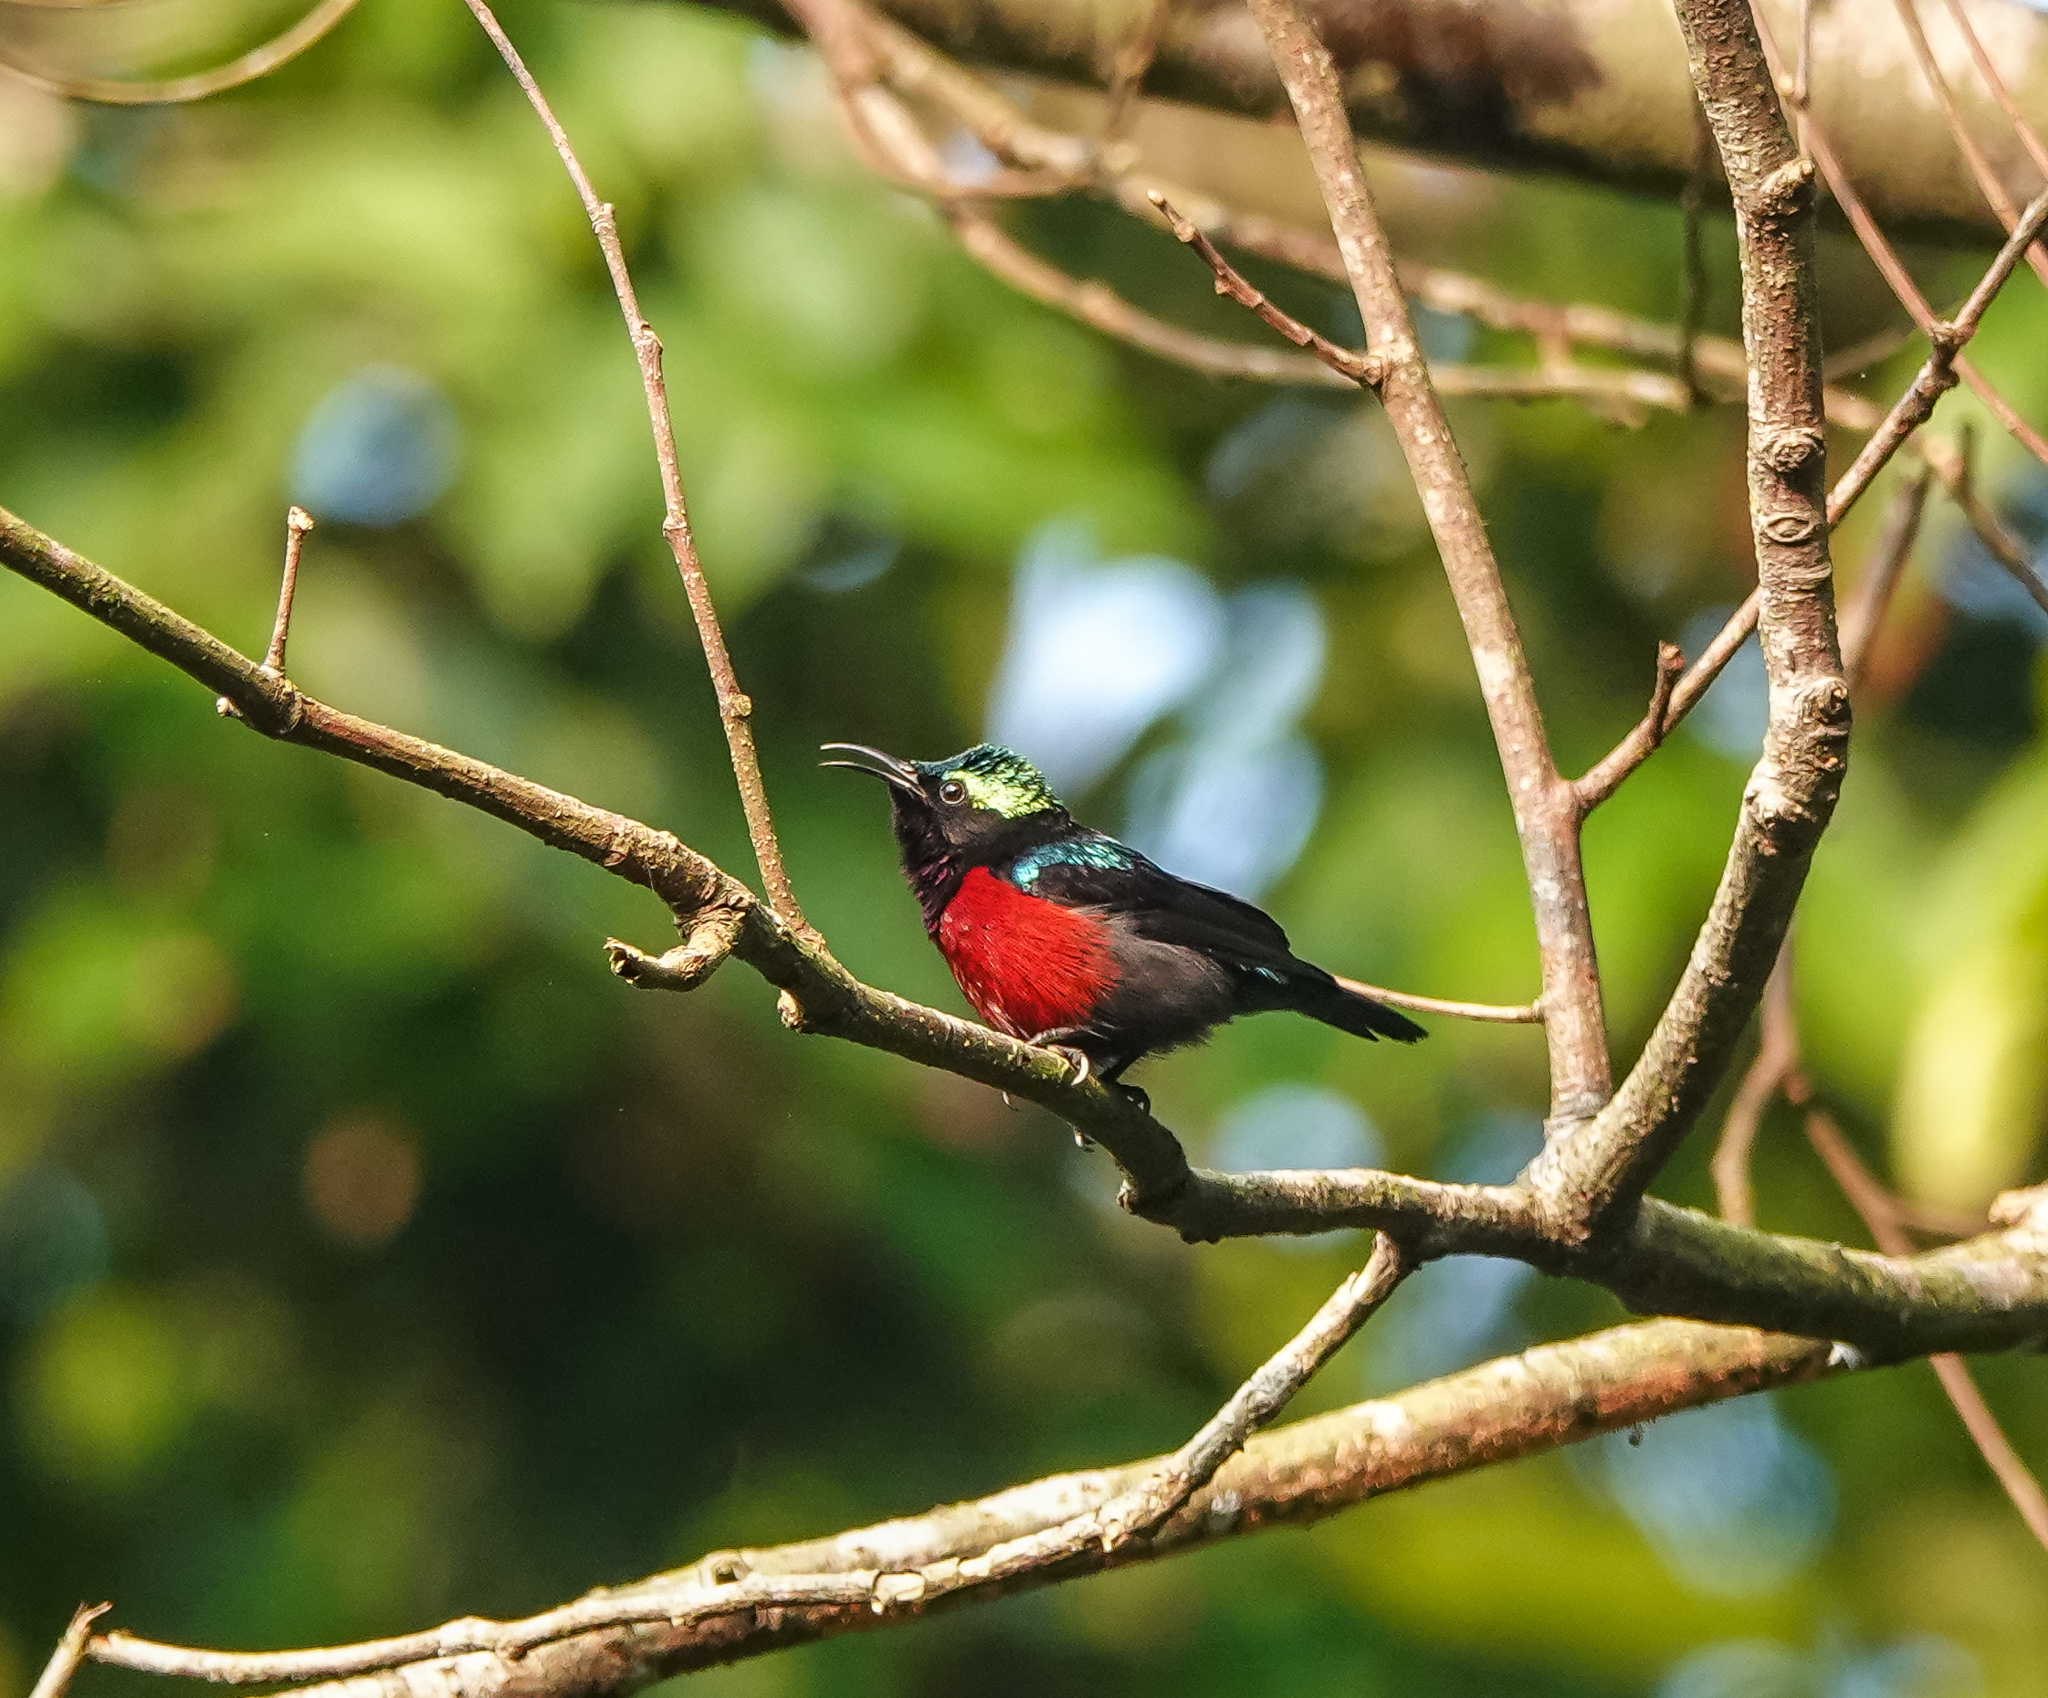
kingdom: Animalia
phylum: Chordata
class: Aves
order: Passeriformes
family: Nectariniidae
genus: Leptocoma
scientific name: Leptocoma brasiliana
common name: Van hasselt's sunbird
